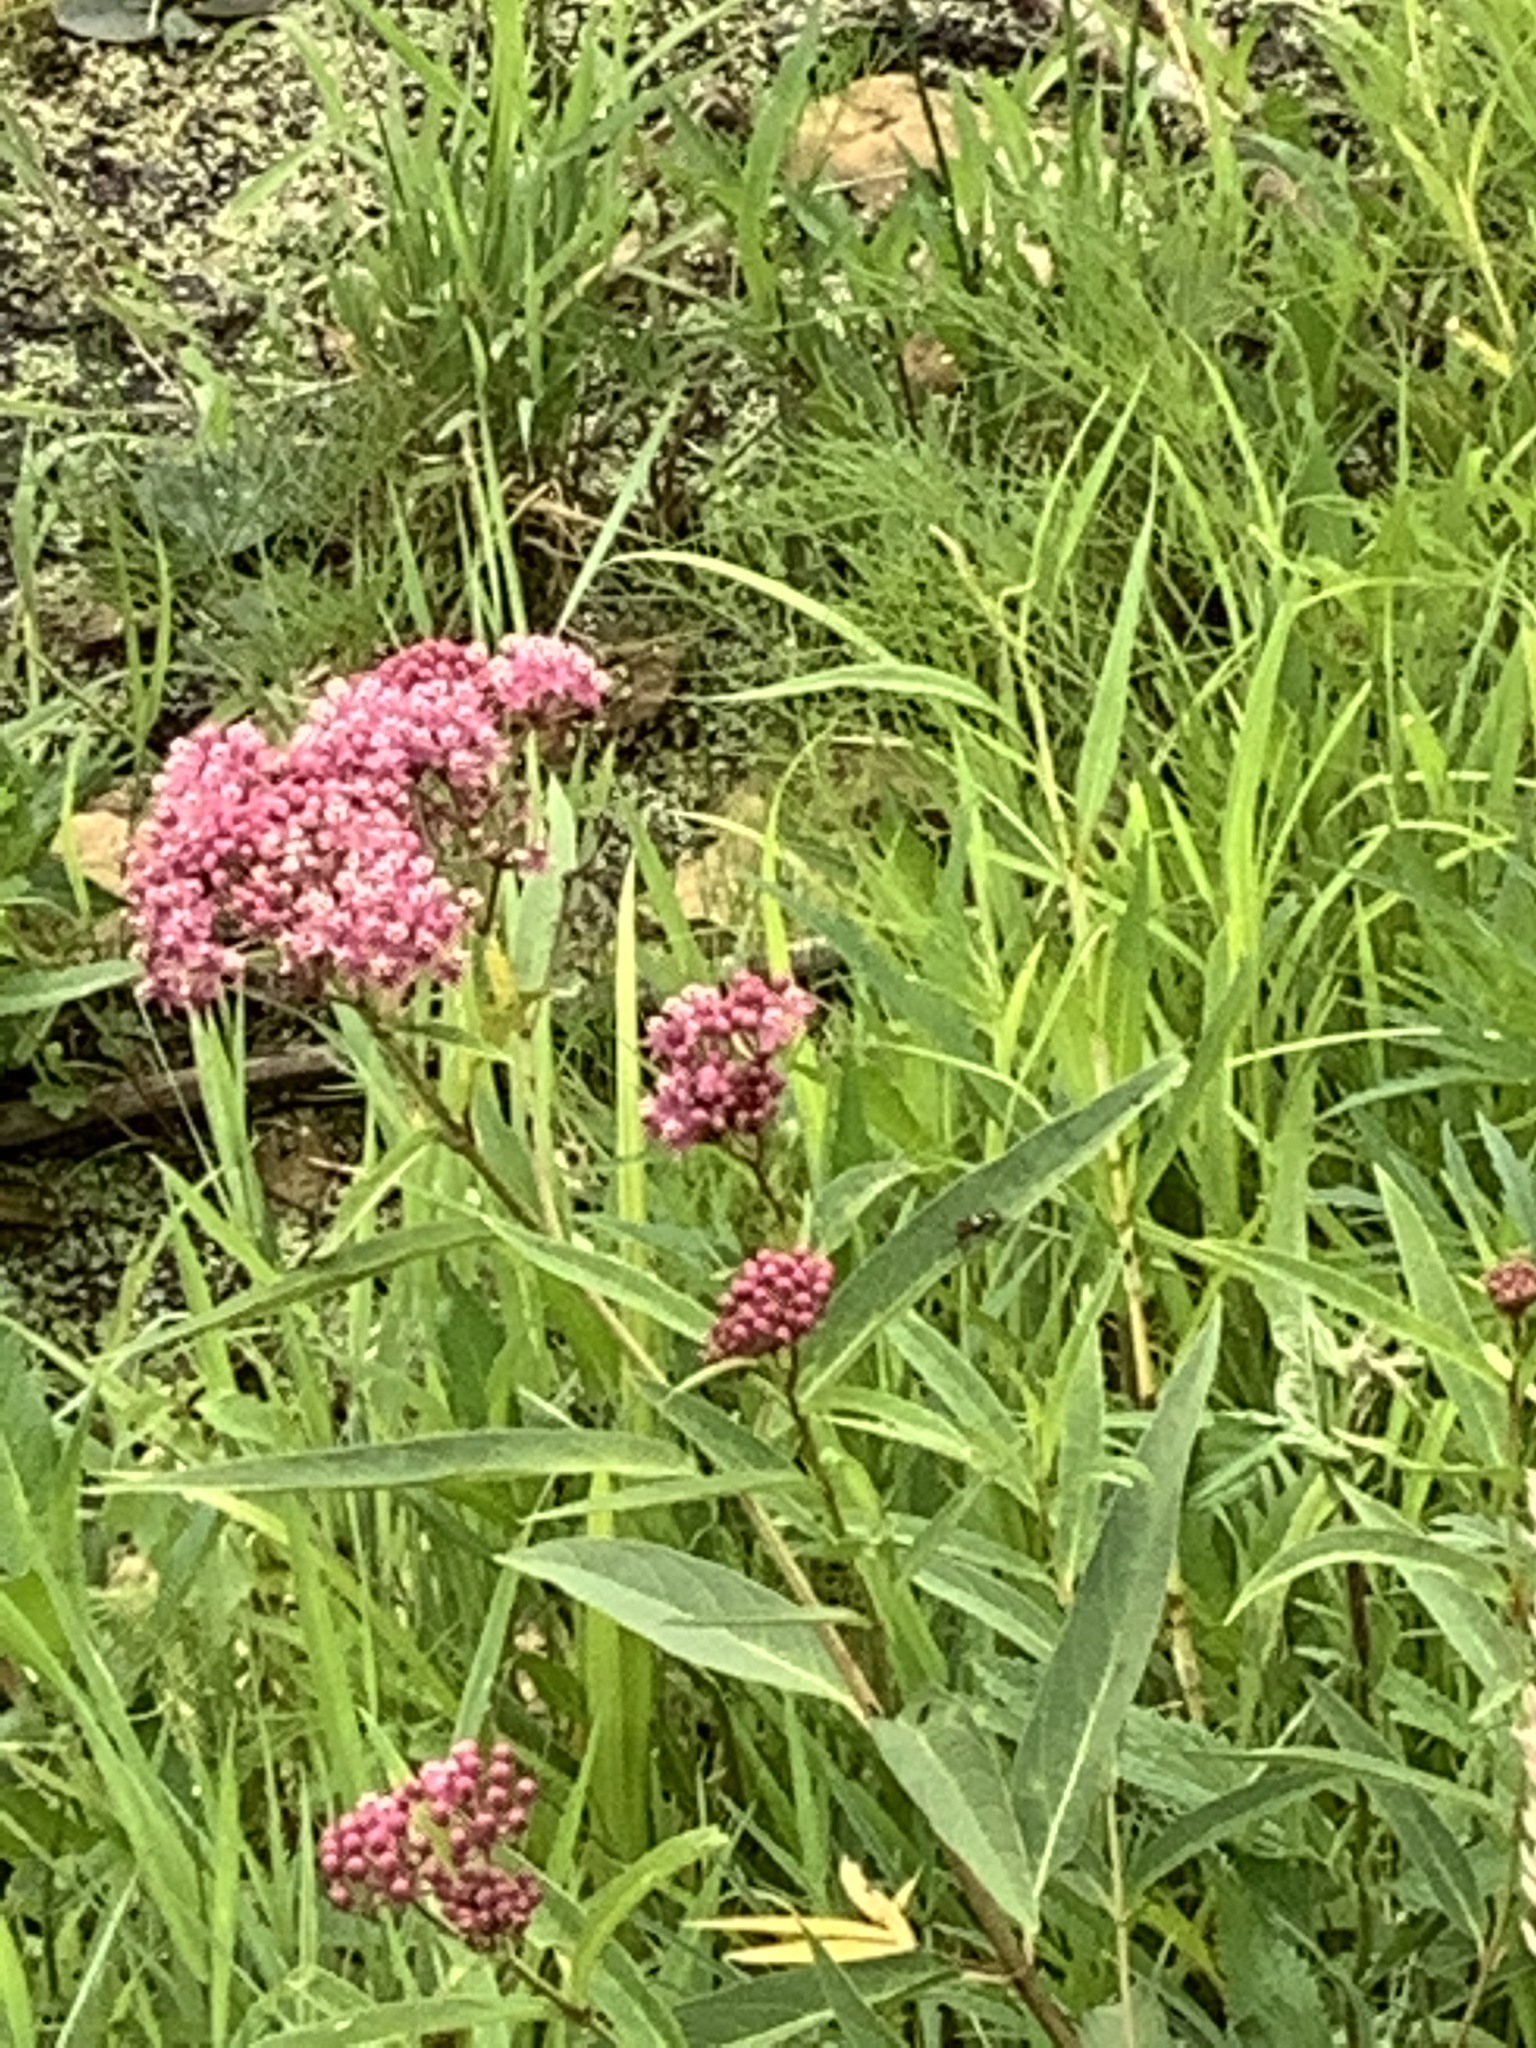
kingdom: Plantae
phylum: Tracheophyta
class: Magnoliopsida
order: Gentianales
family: Apocynaceae
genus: Asclepias
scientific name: Asclepias incarnata
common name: Swamp milkweed
